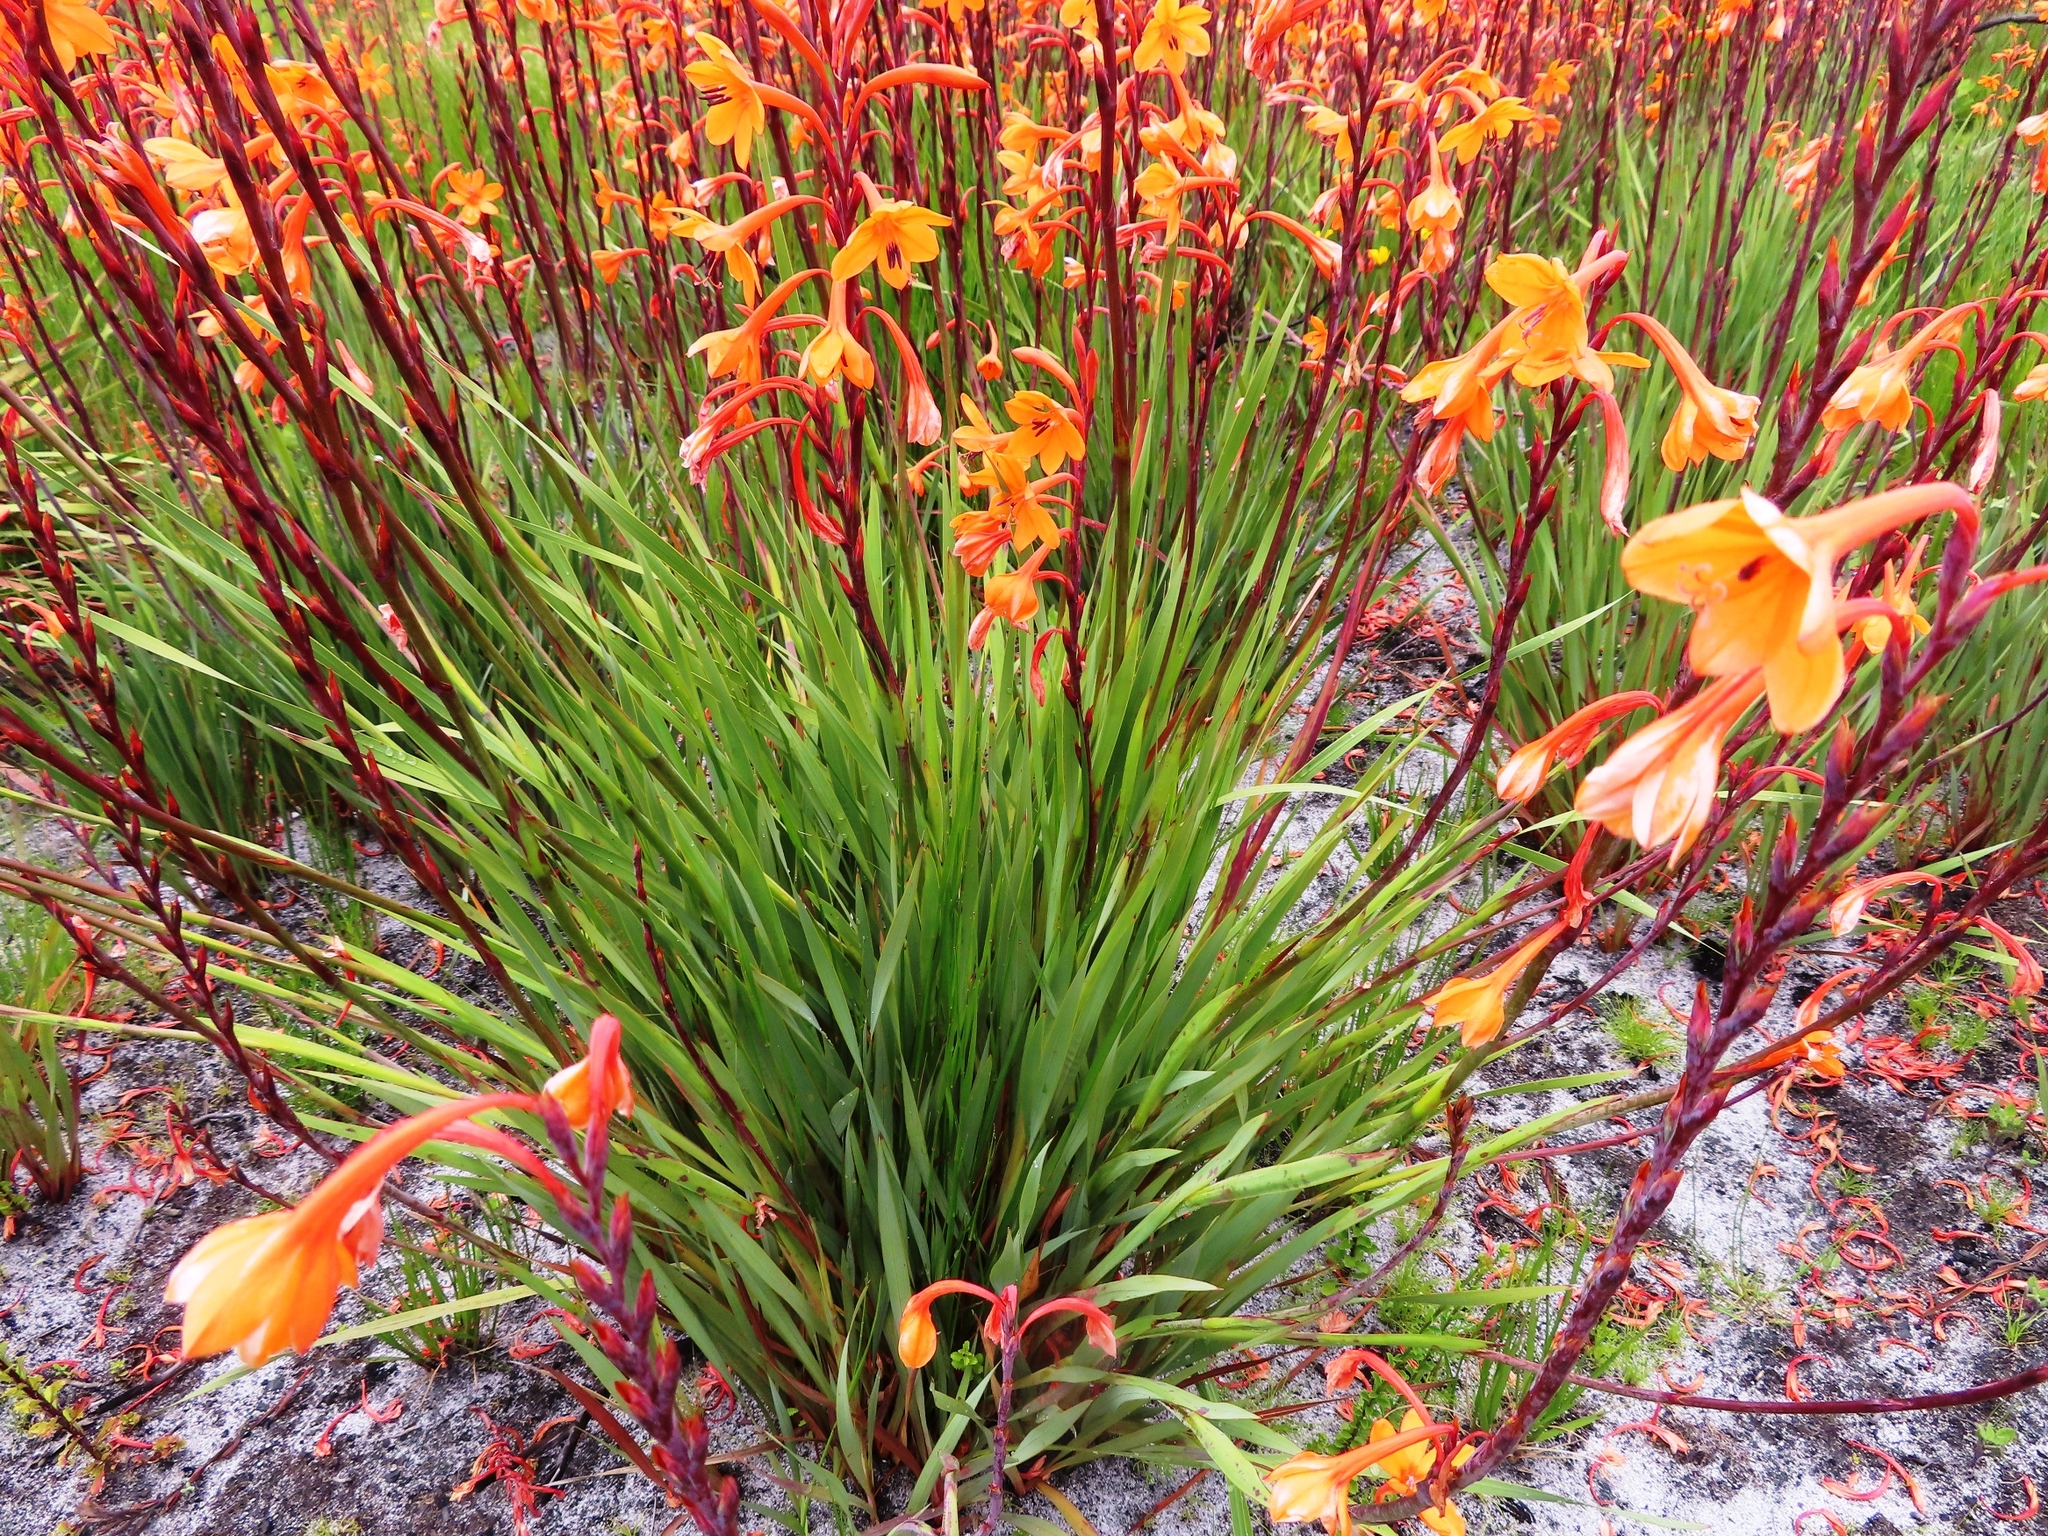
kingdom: Plantae
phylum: Tracheophyta
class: Liliopsida
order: Asparagales
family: Iridaceae
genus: Watsonia
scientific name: Watsonia zeyheri
